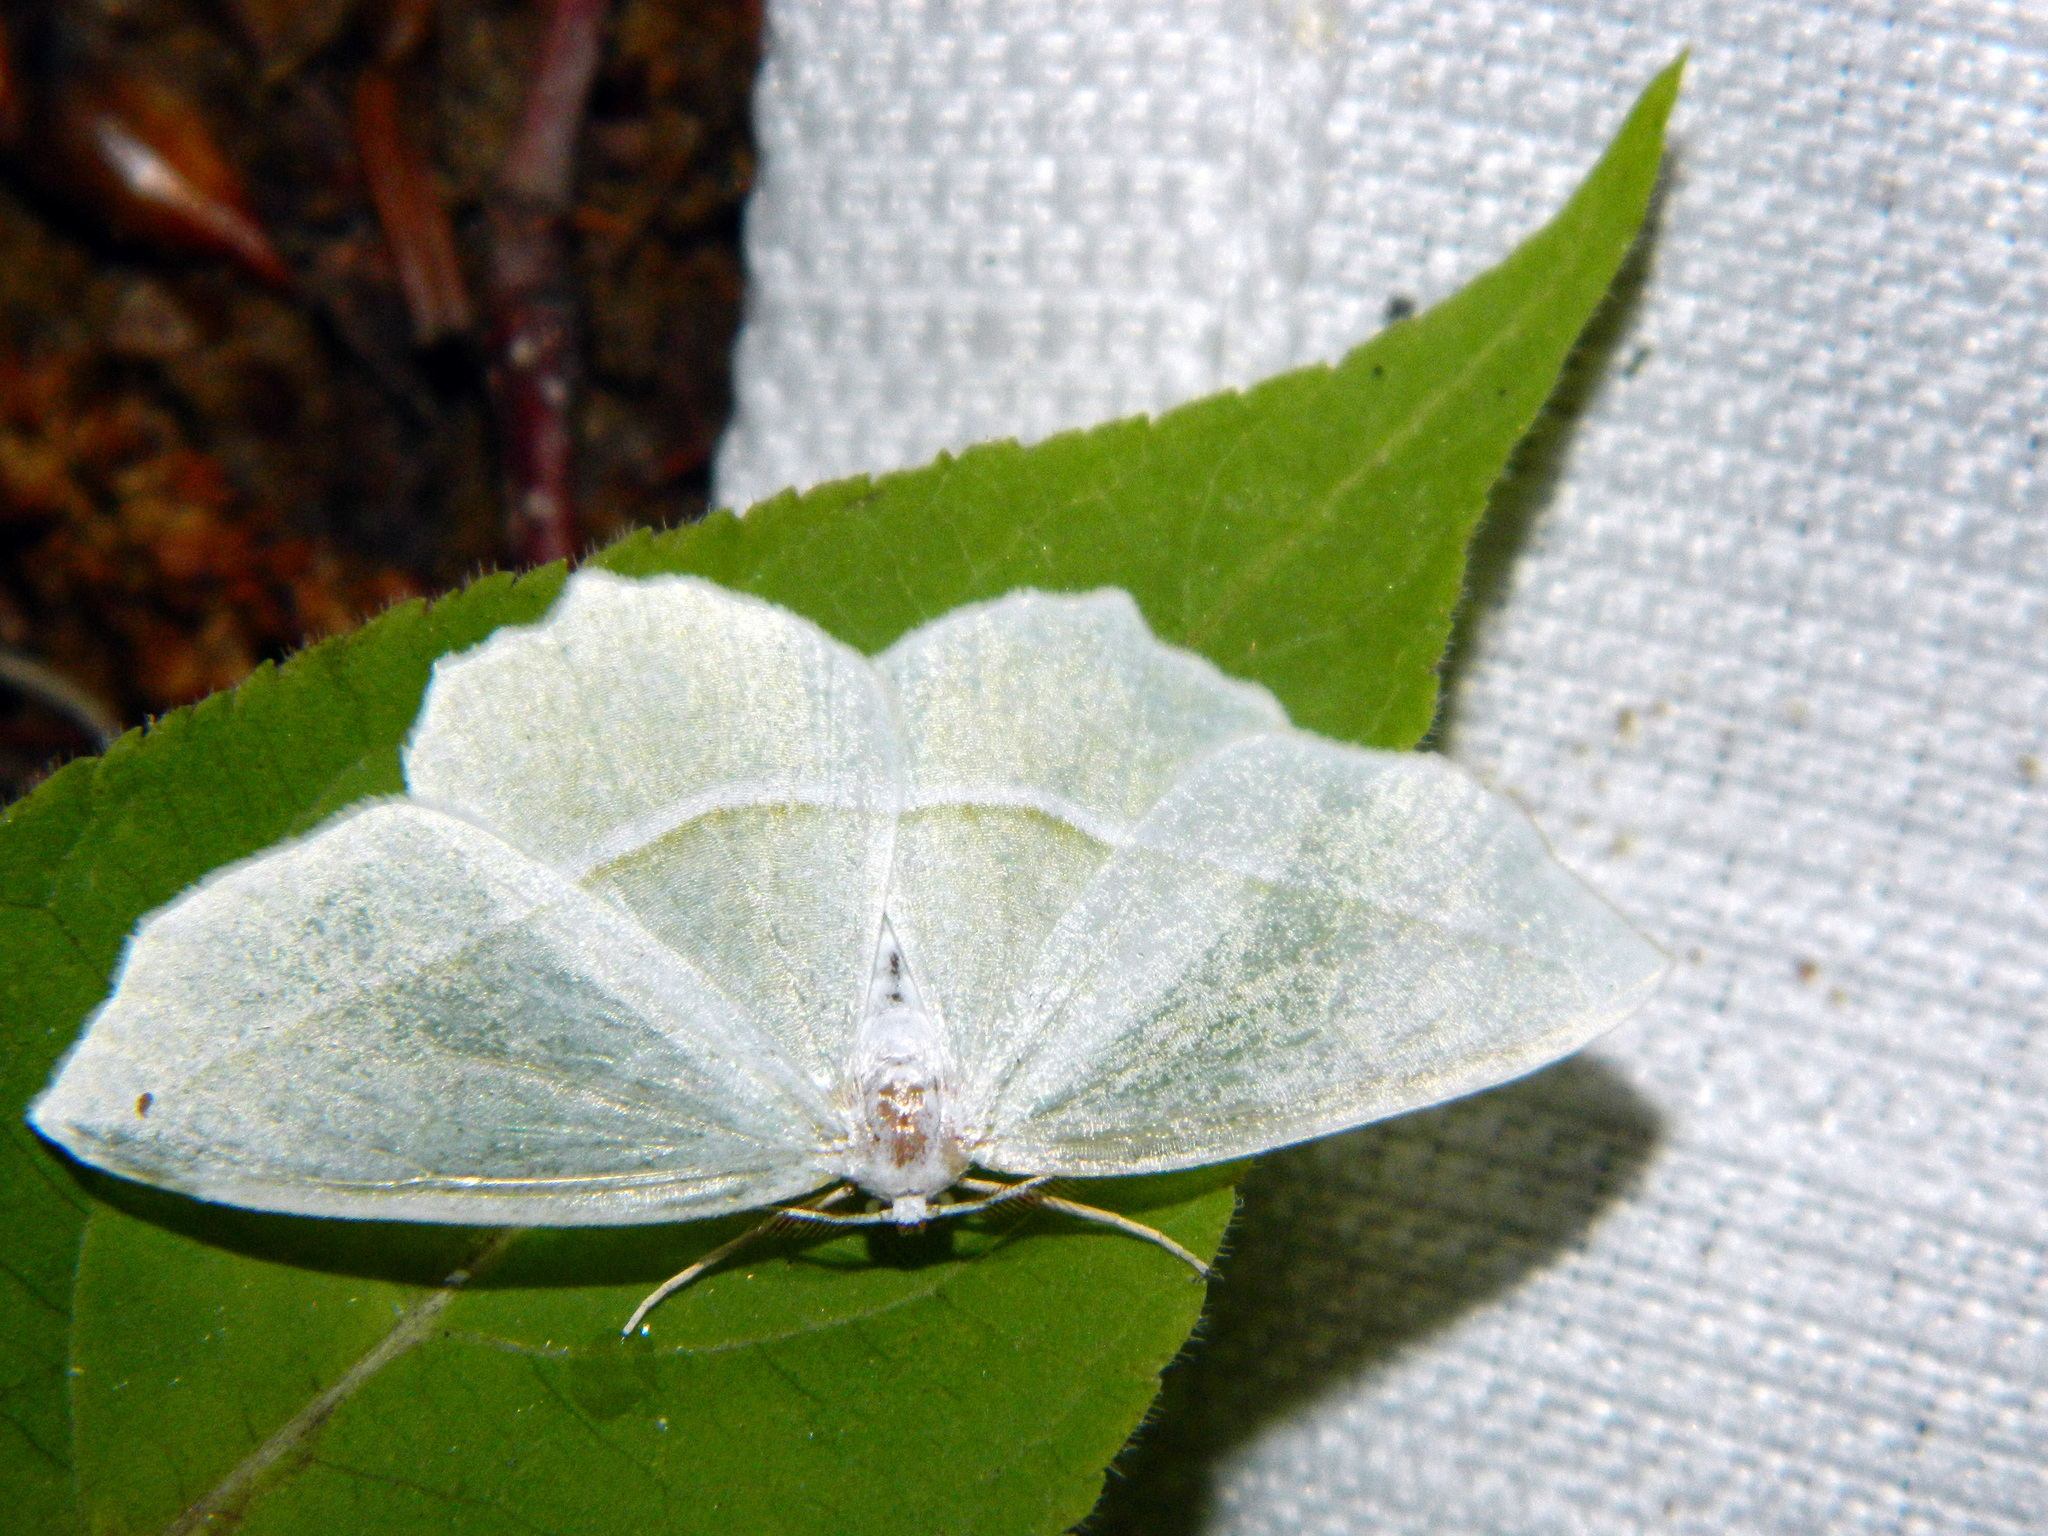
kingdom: Animalia
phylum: Arthropoda
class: Insecta
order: Lepidoptera
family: Geometridae
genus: Campaea
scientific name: Campaea perlata
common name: Fringed looper
